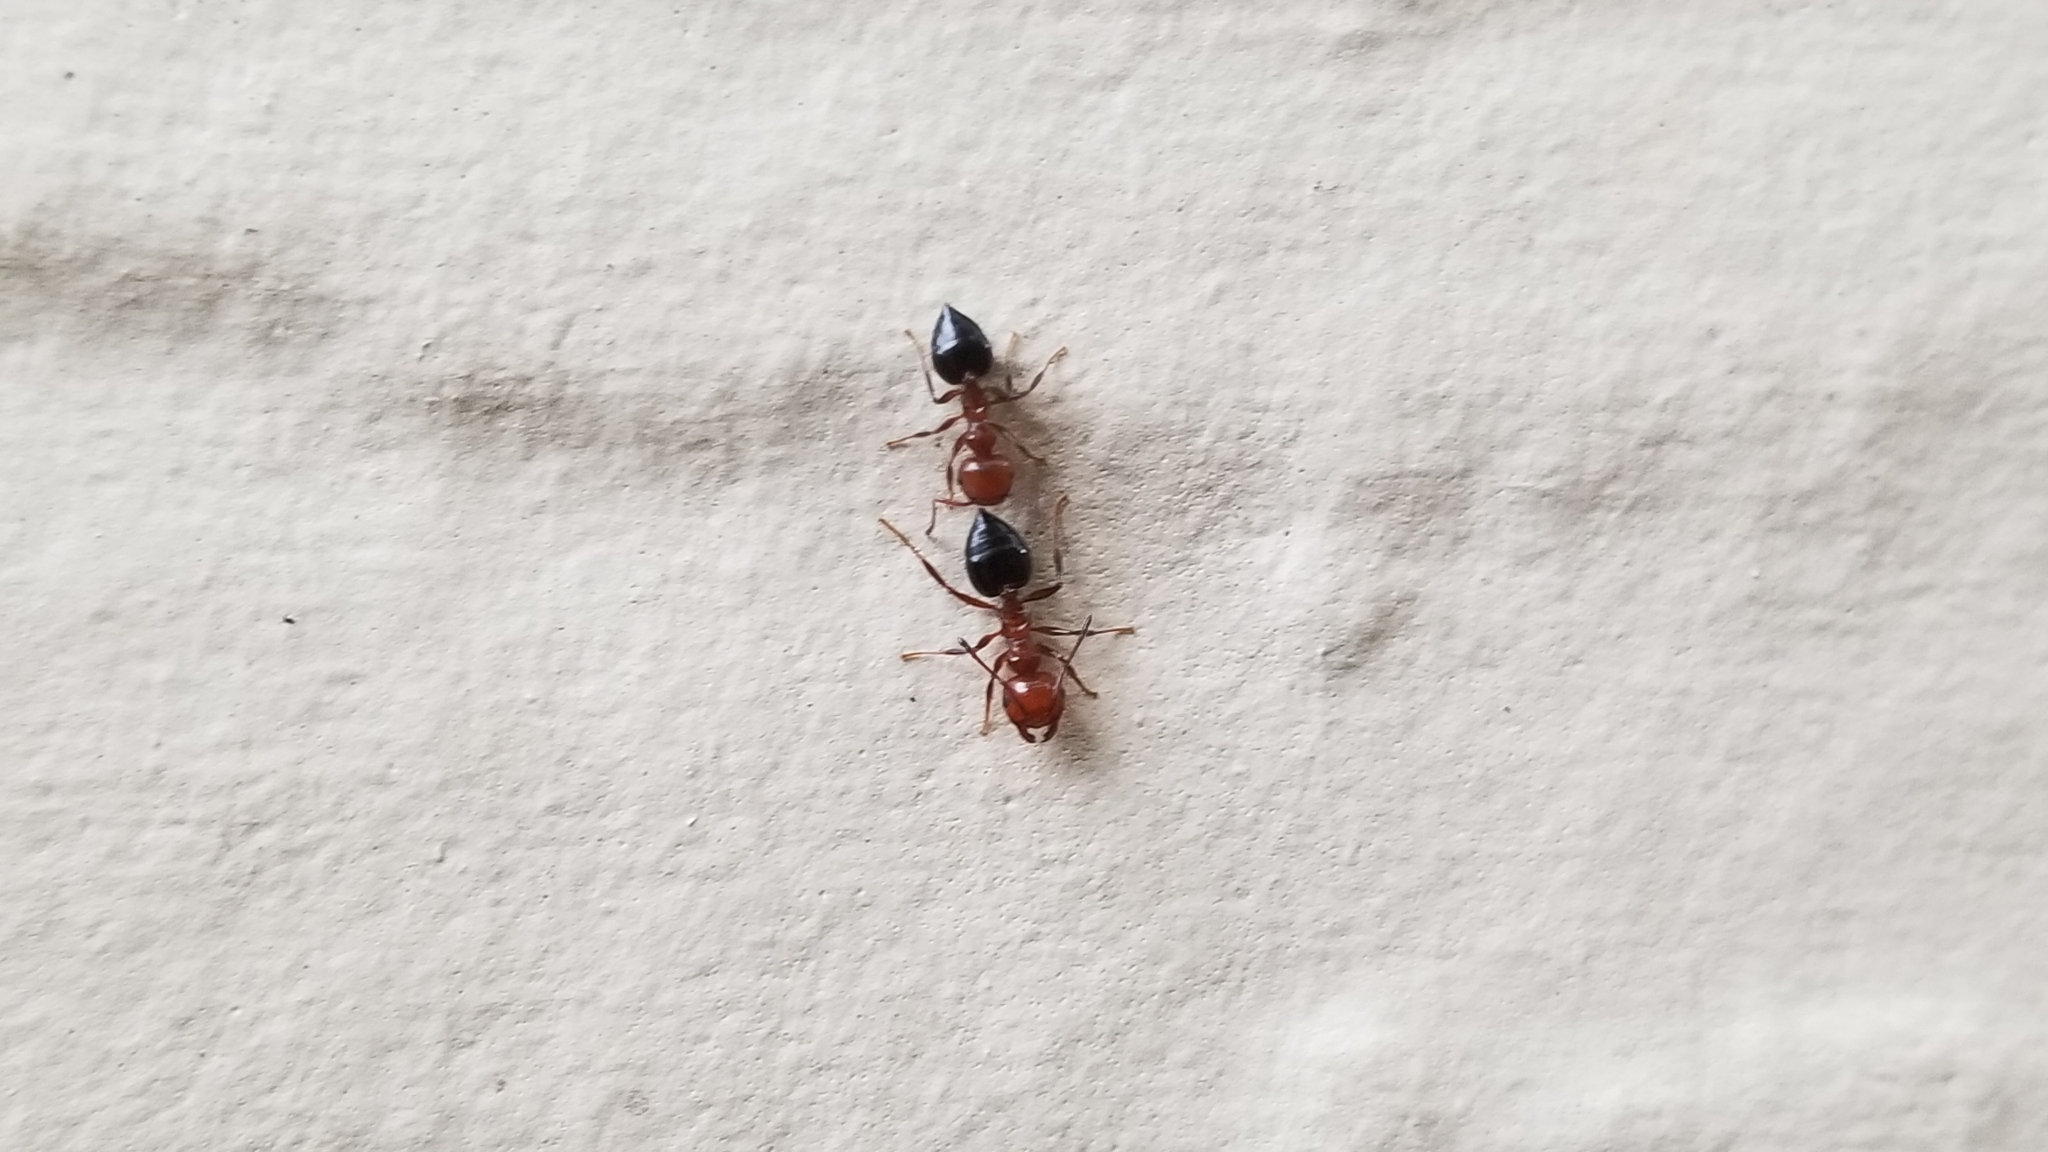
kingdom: Animalia
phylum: Arthropoda
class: Insecta
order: Hymenoptera
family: Formicidae
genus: Crematogaster
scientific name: Crematogaster laeviuscula
